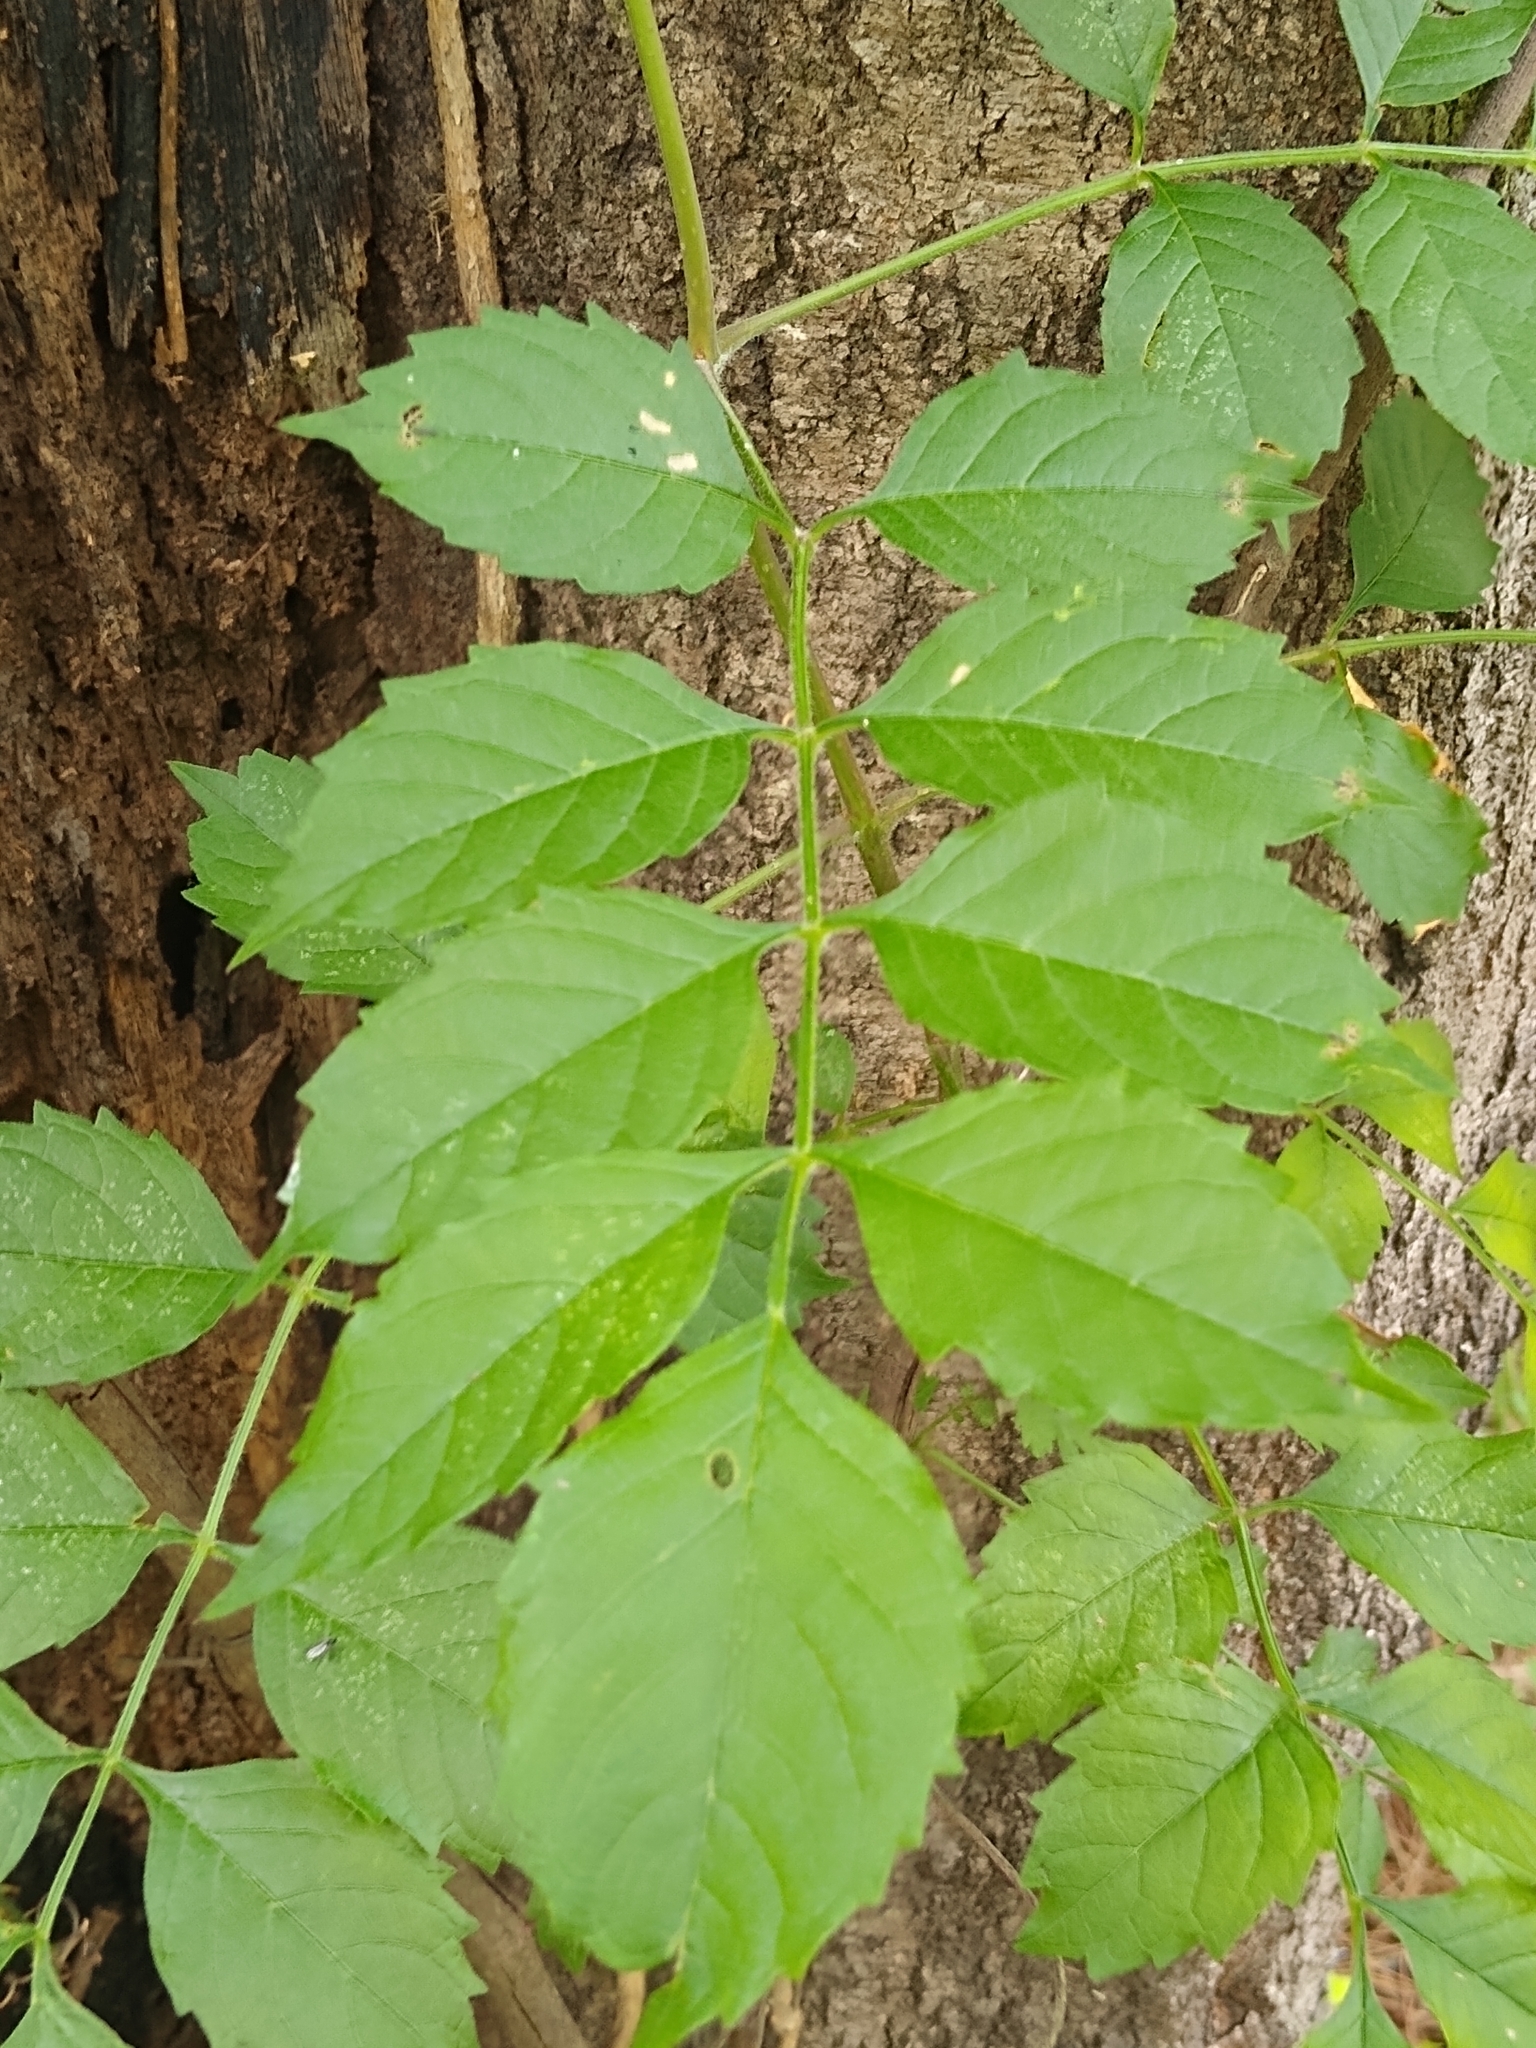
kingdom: Plantae
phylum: Tracheophyta
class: Magnoliopsida
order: Lamiales
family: Bignoniaceae
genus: Campsis
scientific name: Campsis radicans
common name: Trumpet-creeper
